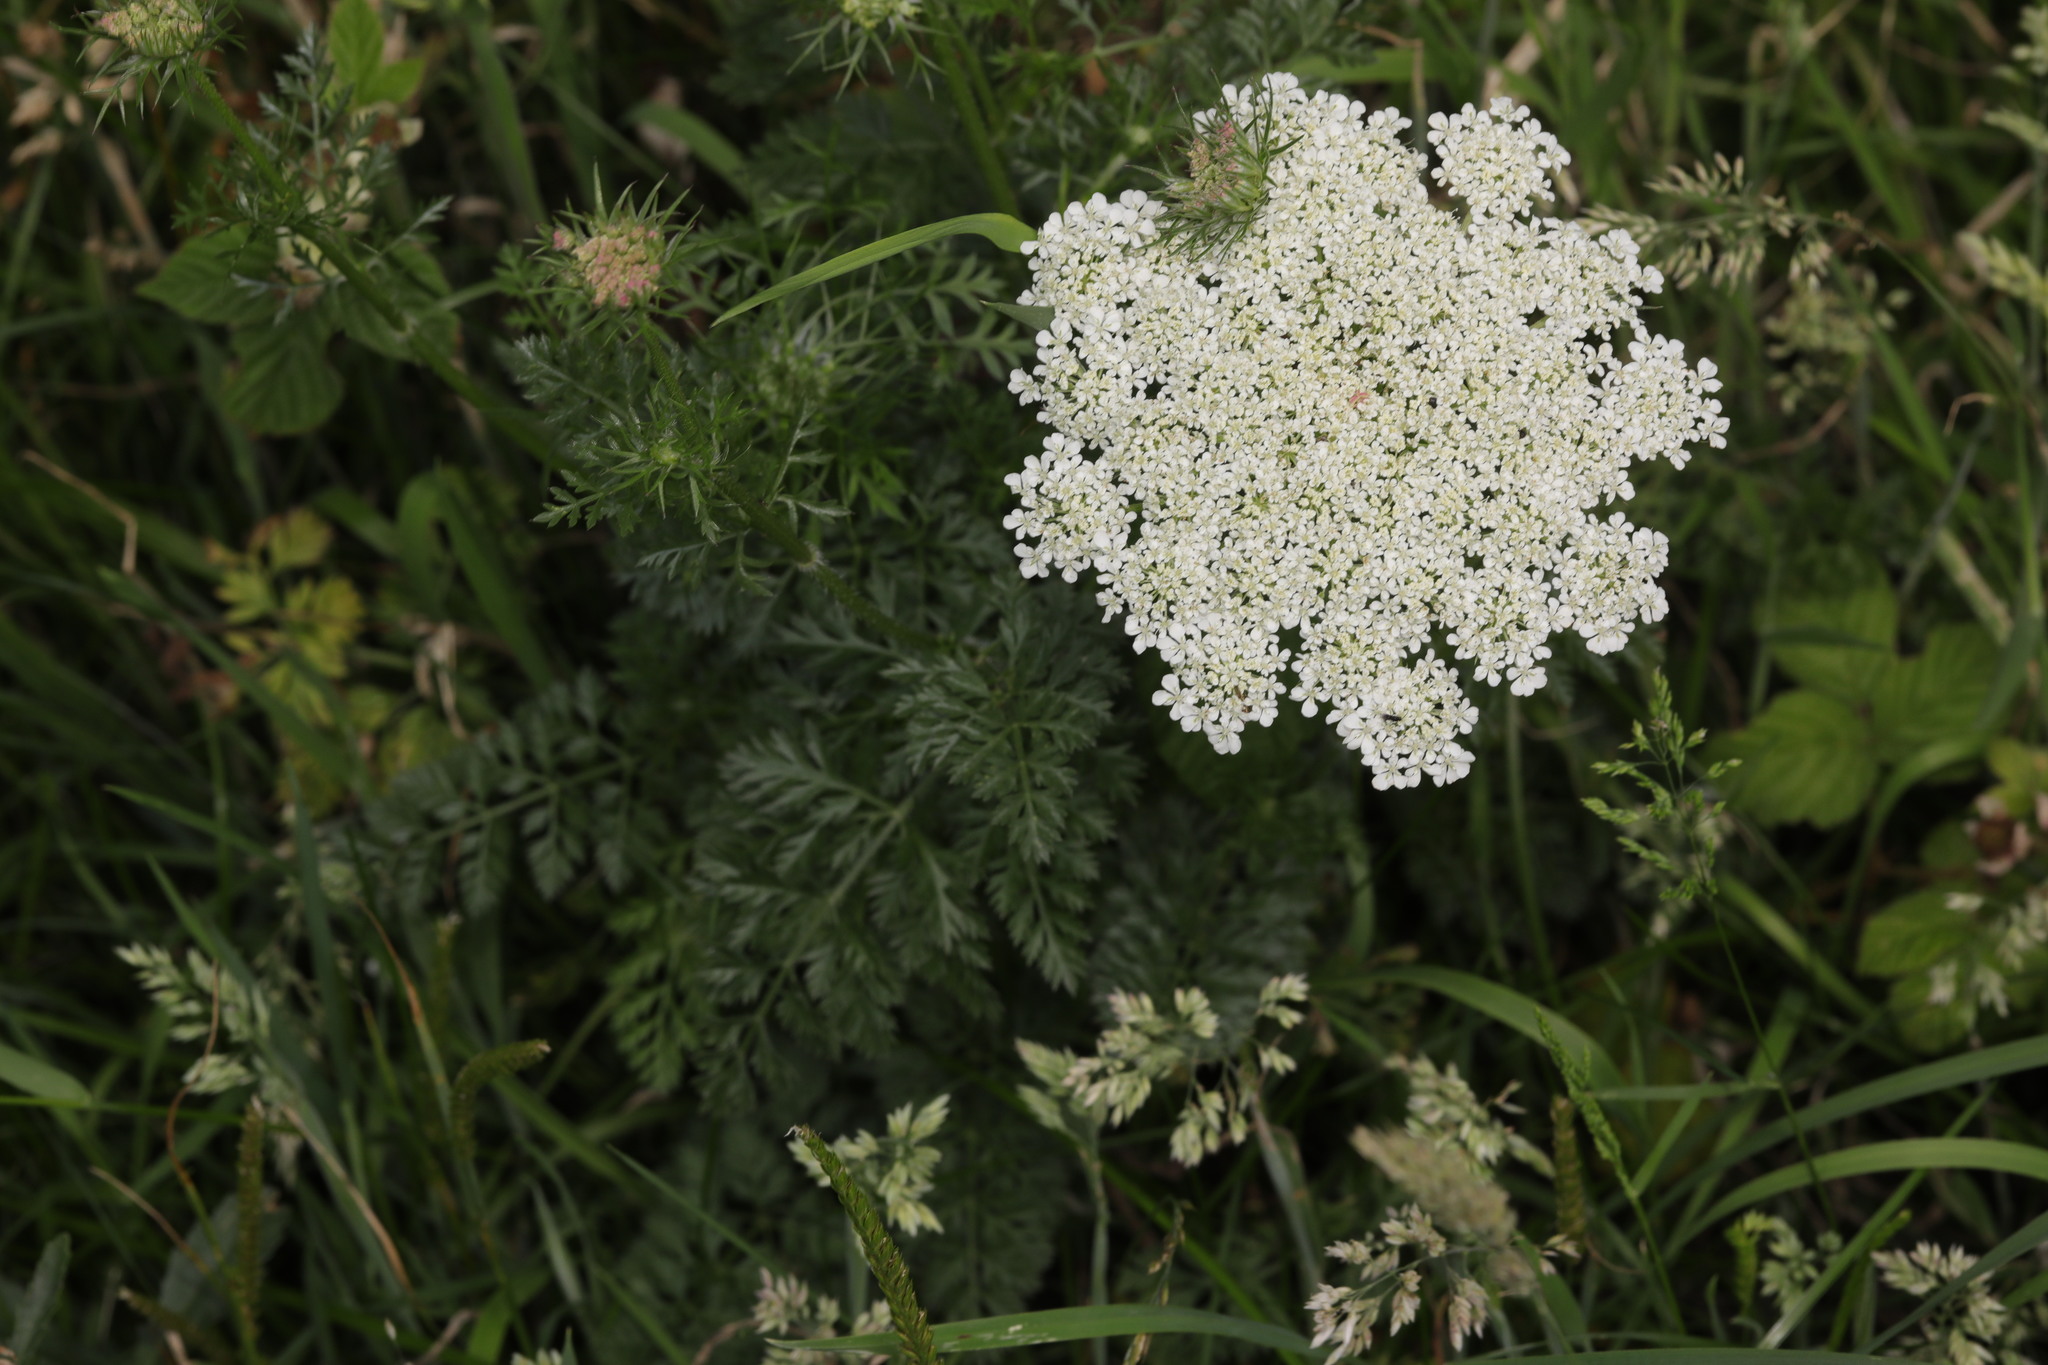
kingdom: Plantae
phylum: Tracheophyta
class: Magnoliopsida
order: Apiales
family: Apiaceae
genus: Daucus
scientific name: Daucus carota
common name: Wild carrot
